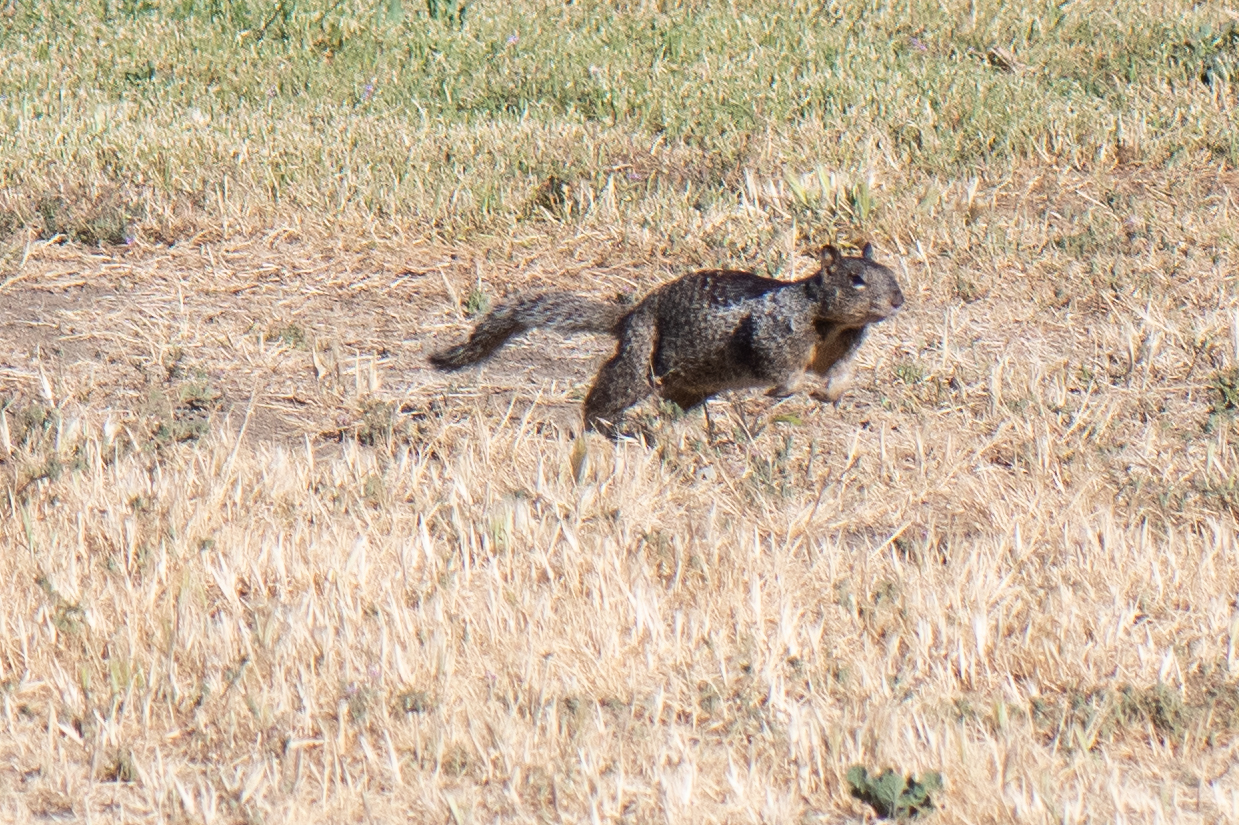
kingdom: Animalia
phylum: Chordata
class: Mammalia
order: Rodentia
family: Sciuridae
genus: Otospermophilus
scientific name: Otospermophilus beecheyi
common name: California ground squirrel
